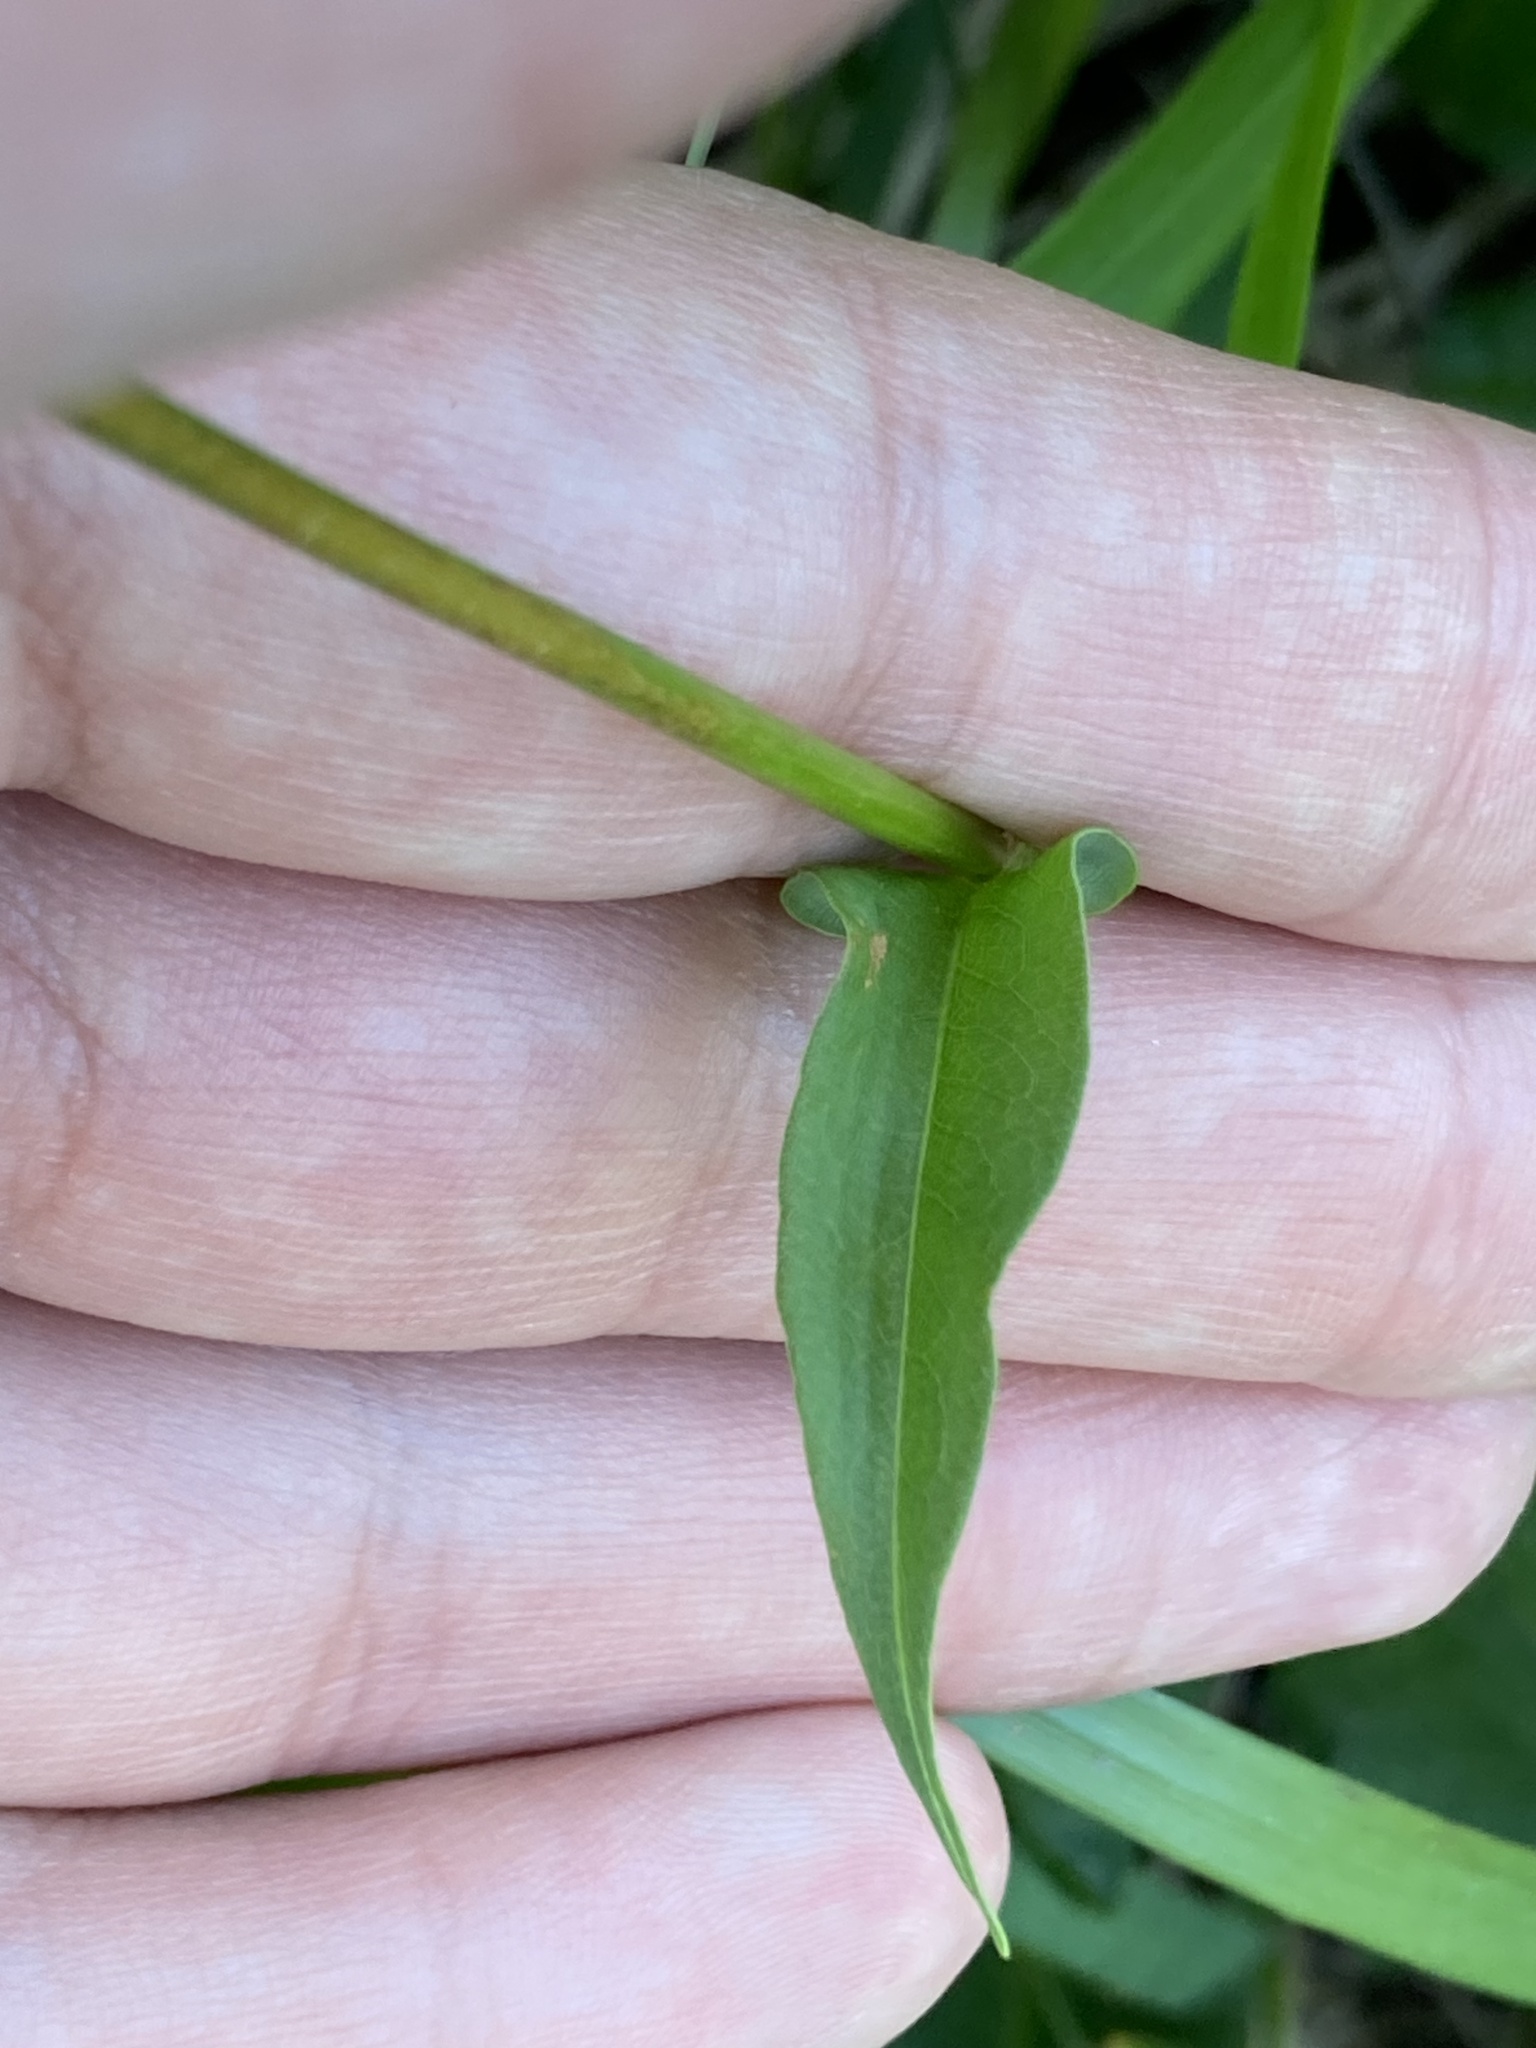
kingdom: Plantae
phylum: Tracheophyta
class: Magnoliopsida
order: Caryophyllales
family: Polygonaceae
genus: Bistorta
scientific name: Bistorta officinalis
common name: Common bistort
